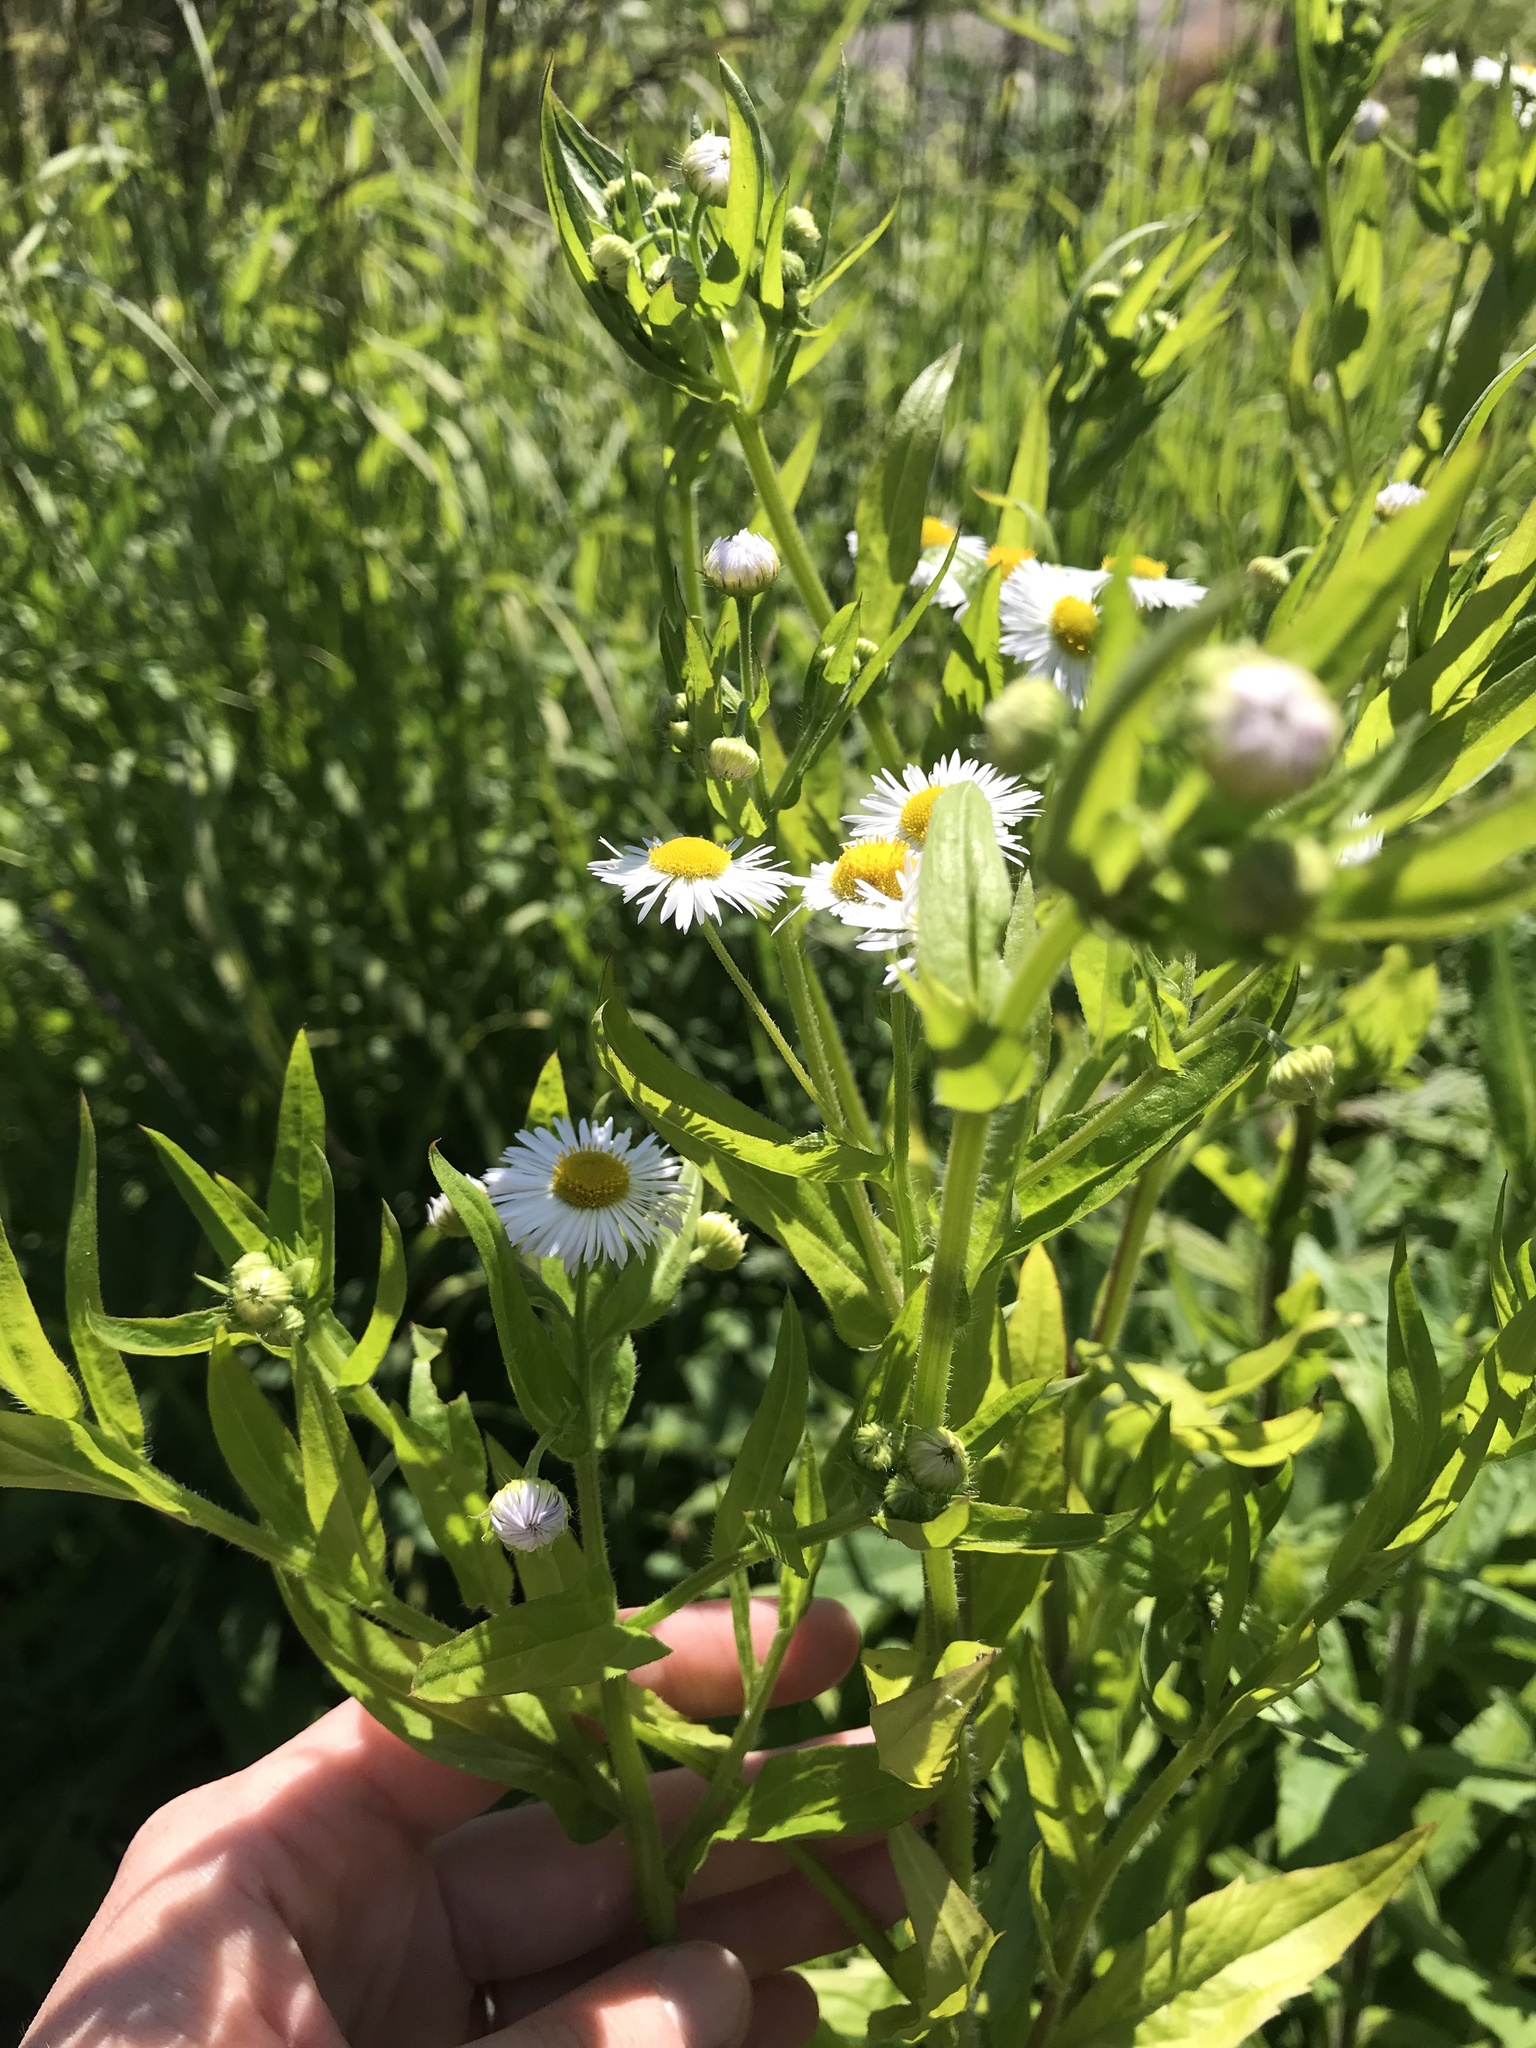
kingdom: Plantae
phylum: Tracheophyta
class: Magnoliopsida
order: Asterales
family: Asteraceae
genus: Erigeron
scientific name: Erigeron annuus
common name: Tall fleabane
